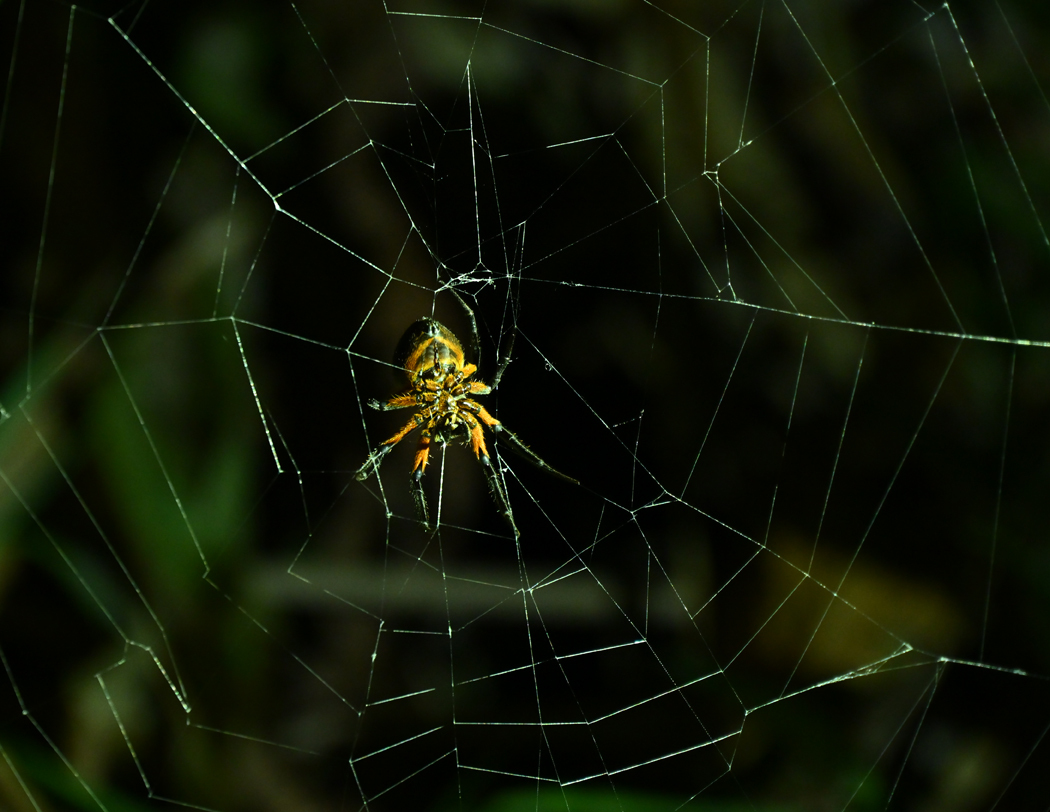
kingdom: Animalia
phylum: Arthropoda
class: Arachnida
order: Araneae
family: Araneidae
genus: Eriophora
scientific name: Eriophora fuliginea
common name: Orb weavers
